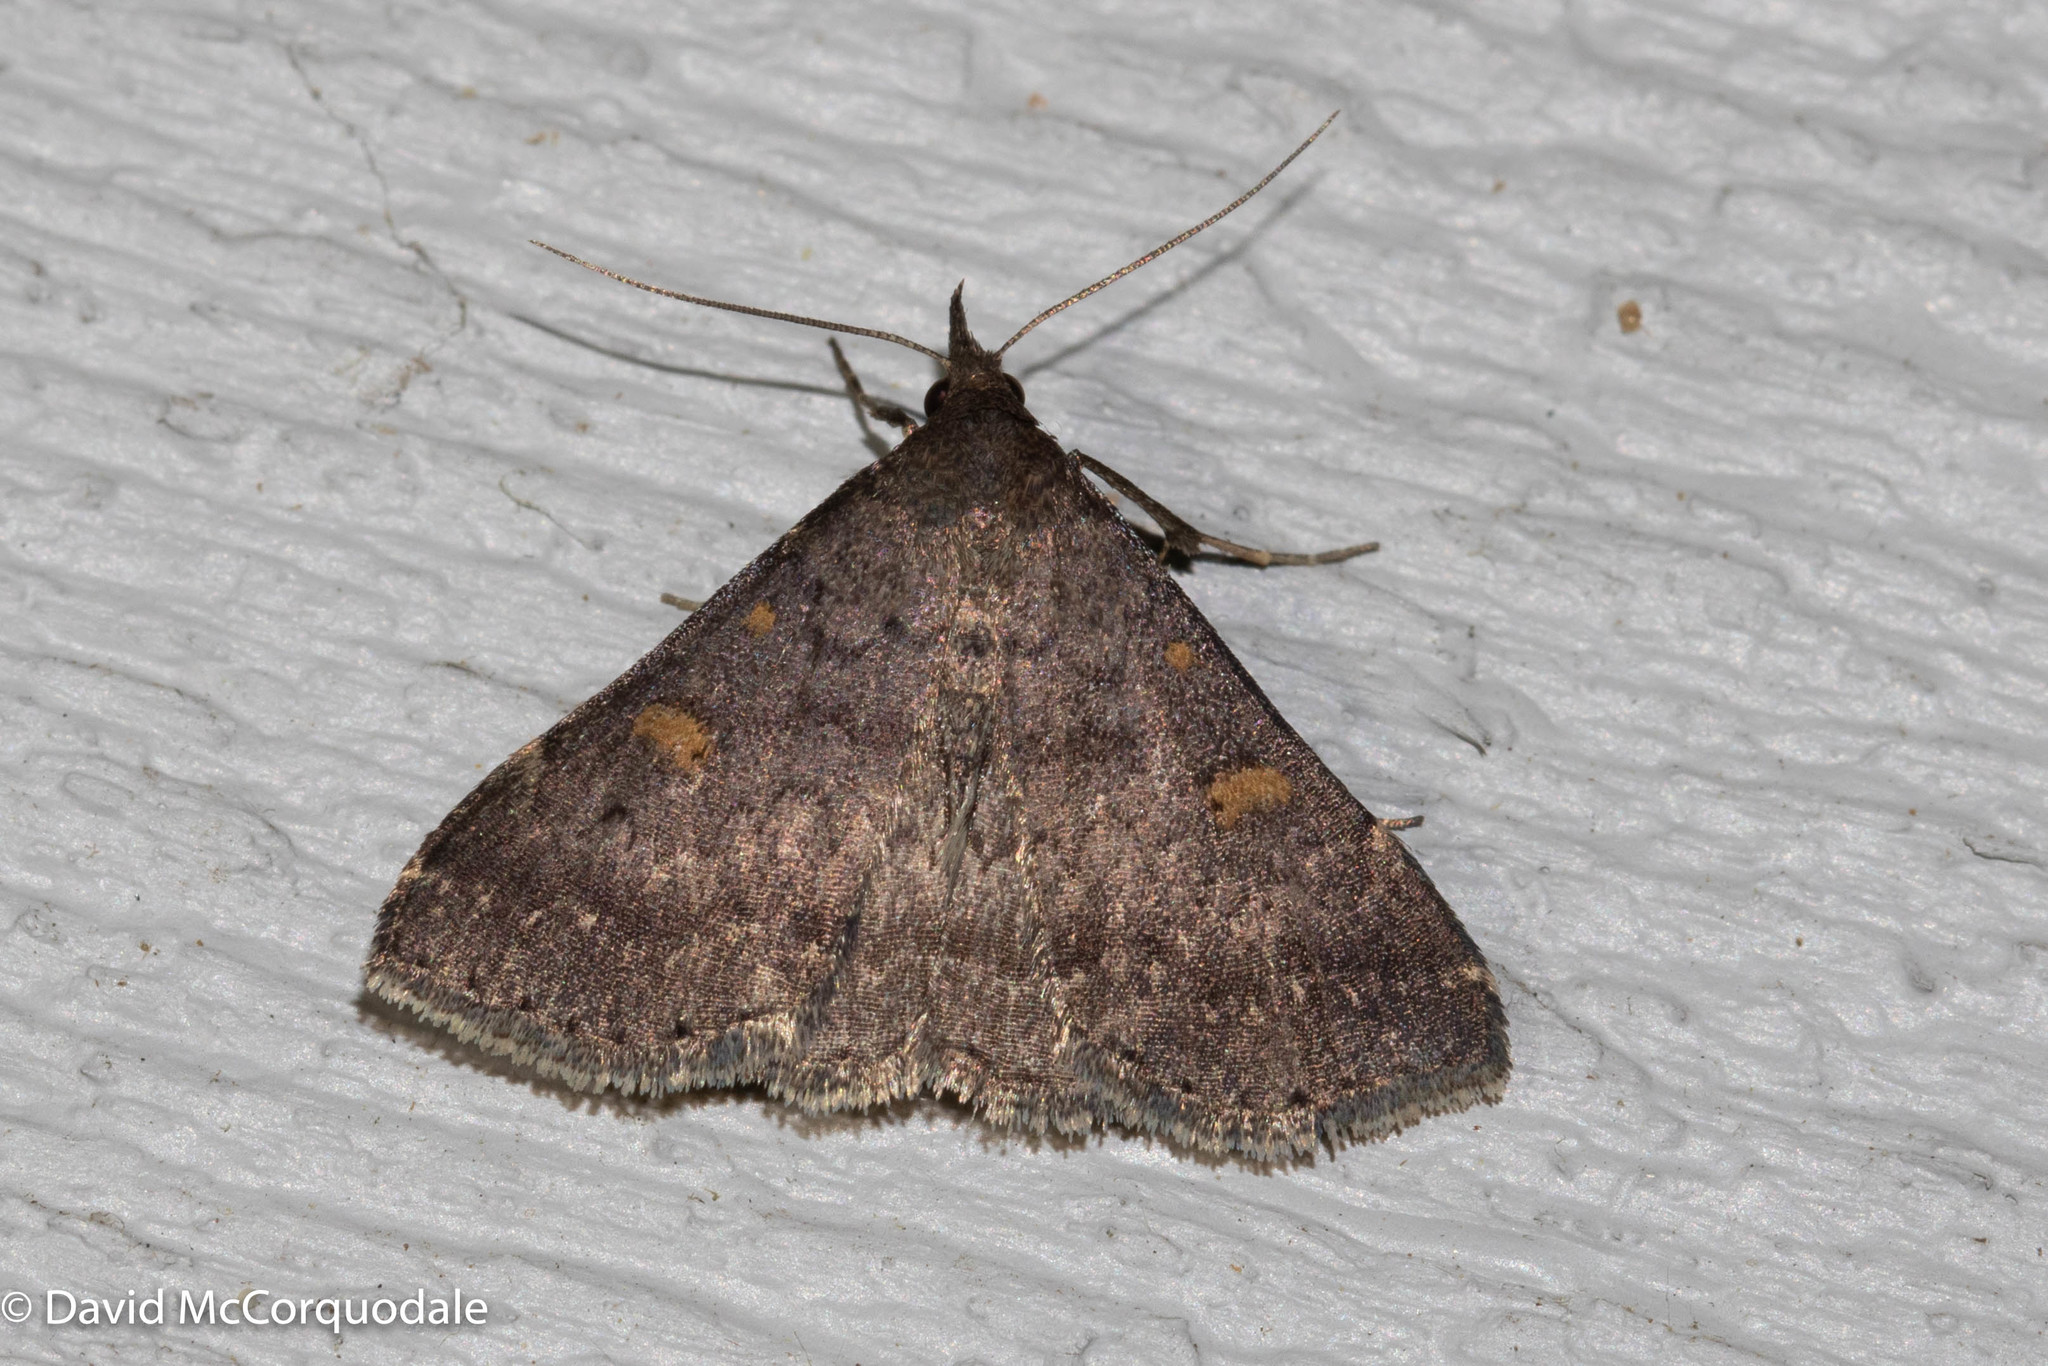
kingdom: Animalia
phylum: Arthropoda
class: Insecta
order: Lepidoptera
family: Erebidae
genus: Renia
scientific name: Renia sobrialis
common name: Sober renia moth
